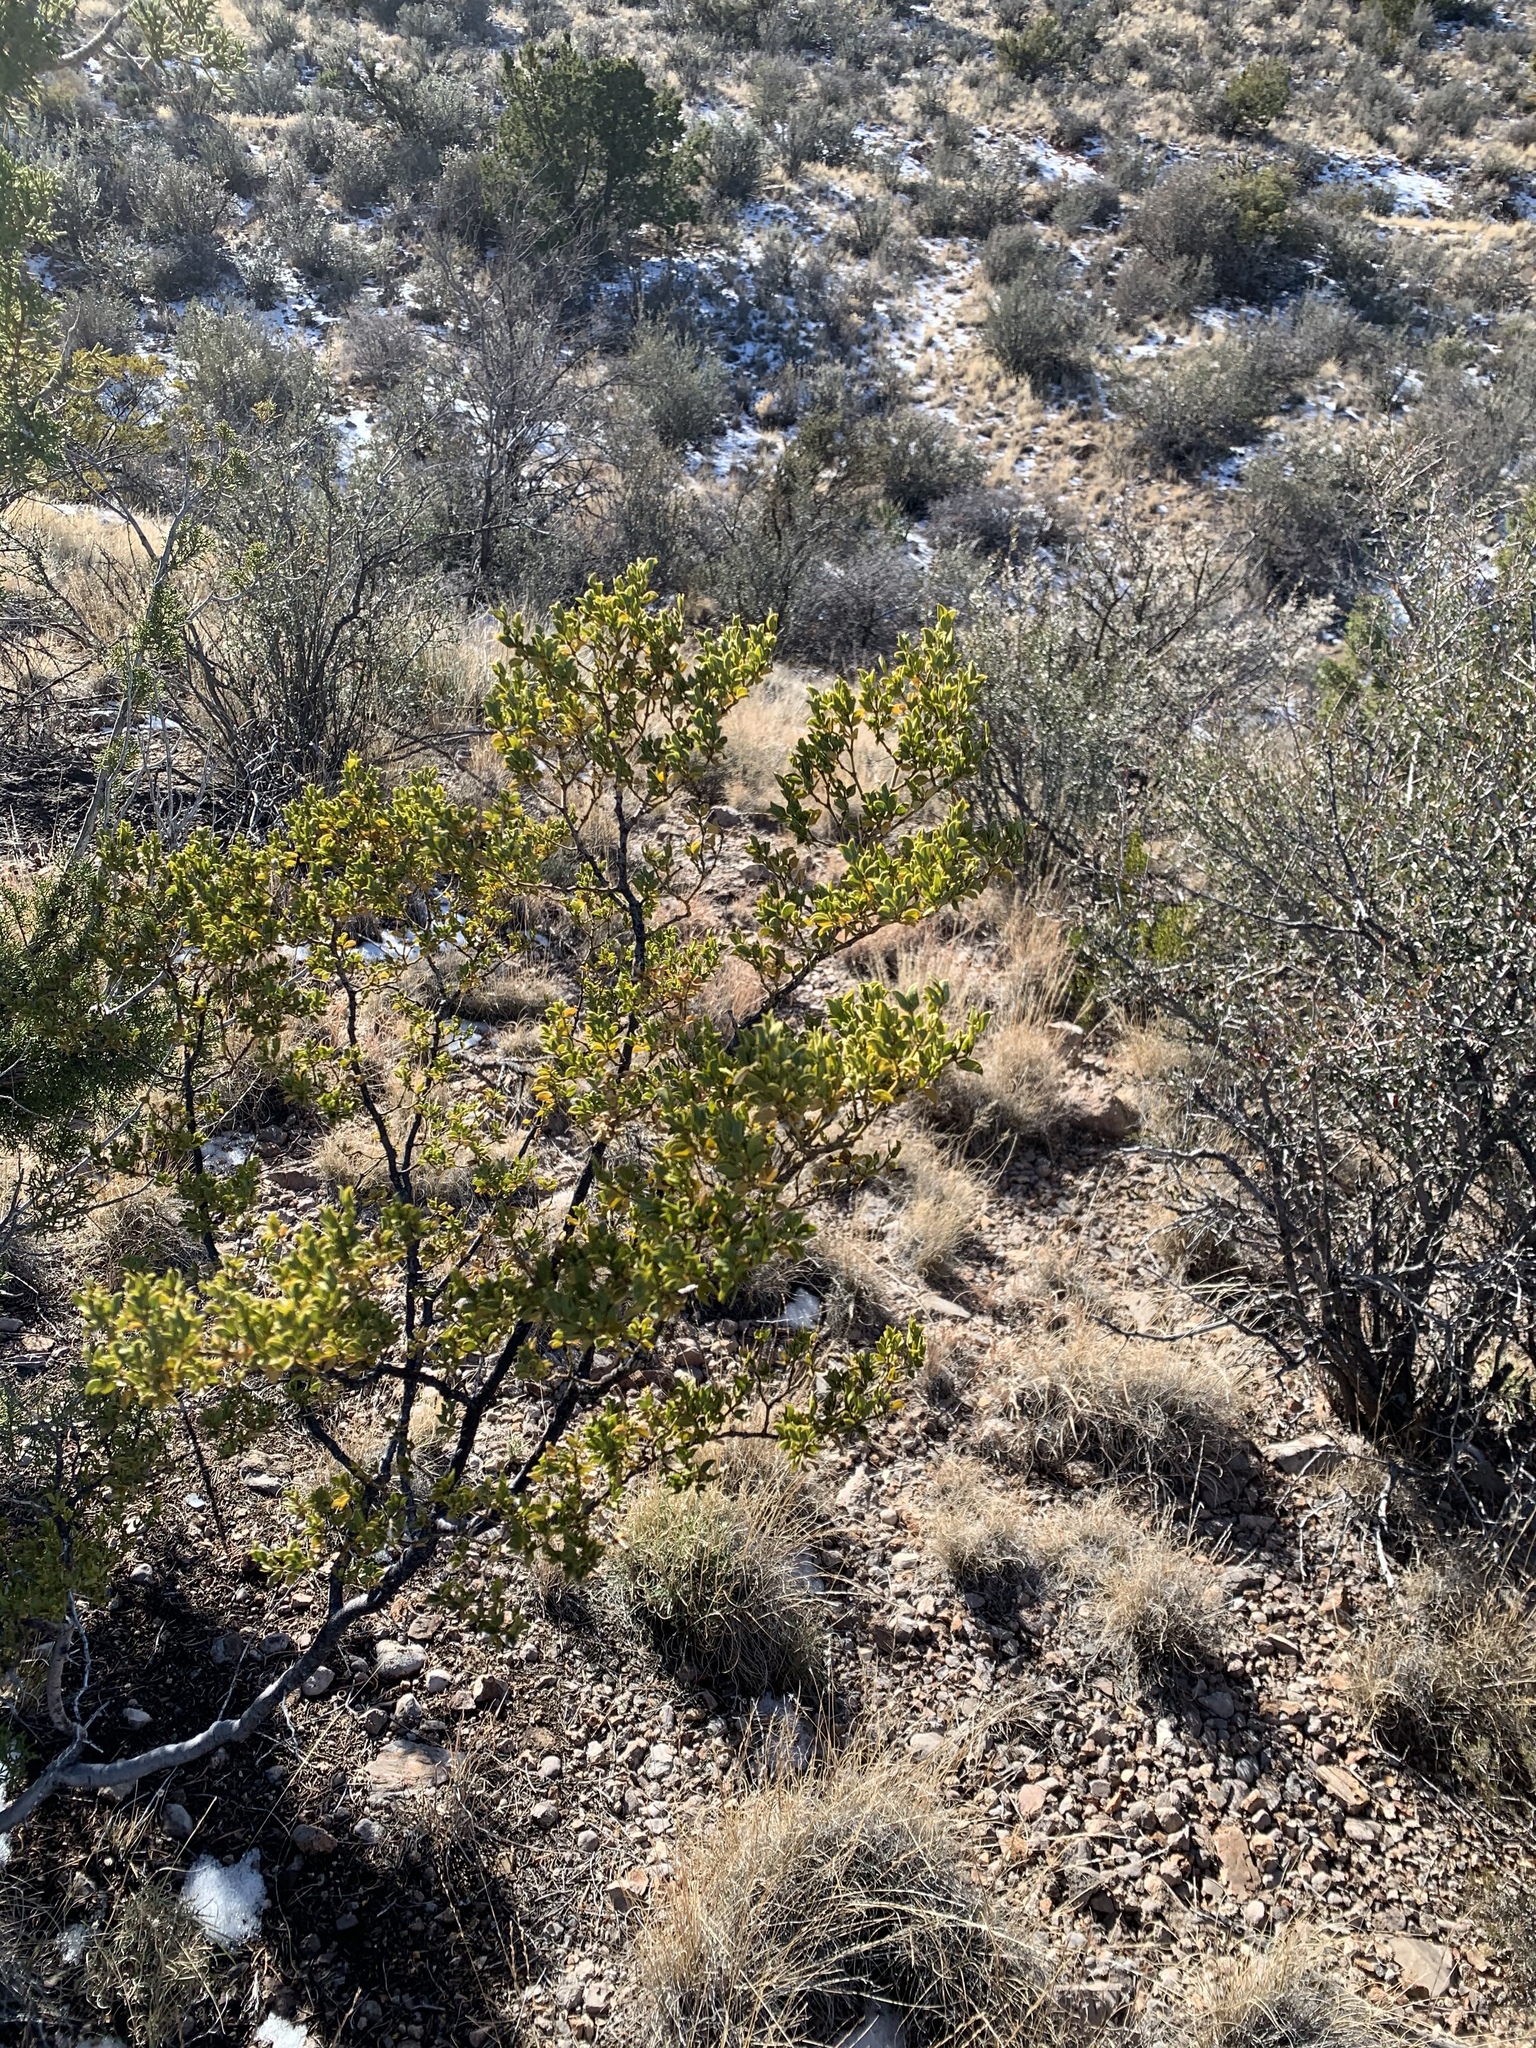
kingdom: Plantae
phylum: Tracheophyta
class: Magnoliopsida
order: Zygophyllales
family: Zygophyllaceae
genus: Larrea
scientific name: Larrea tridentata
